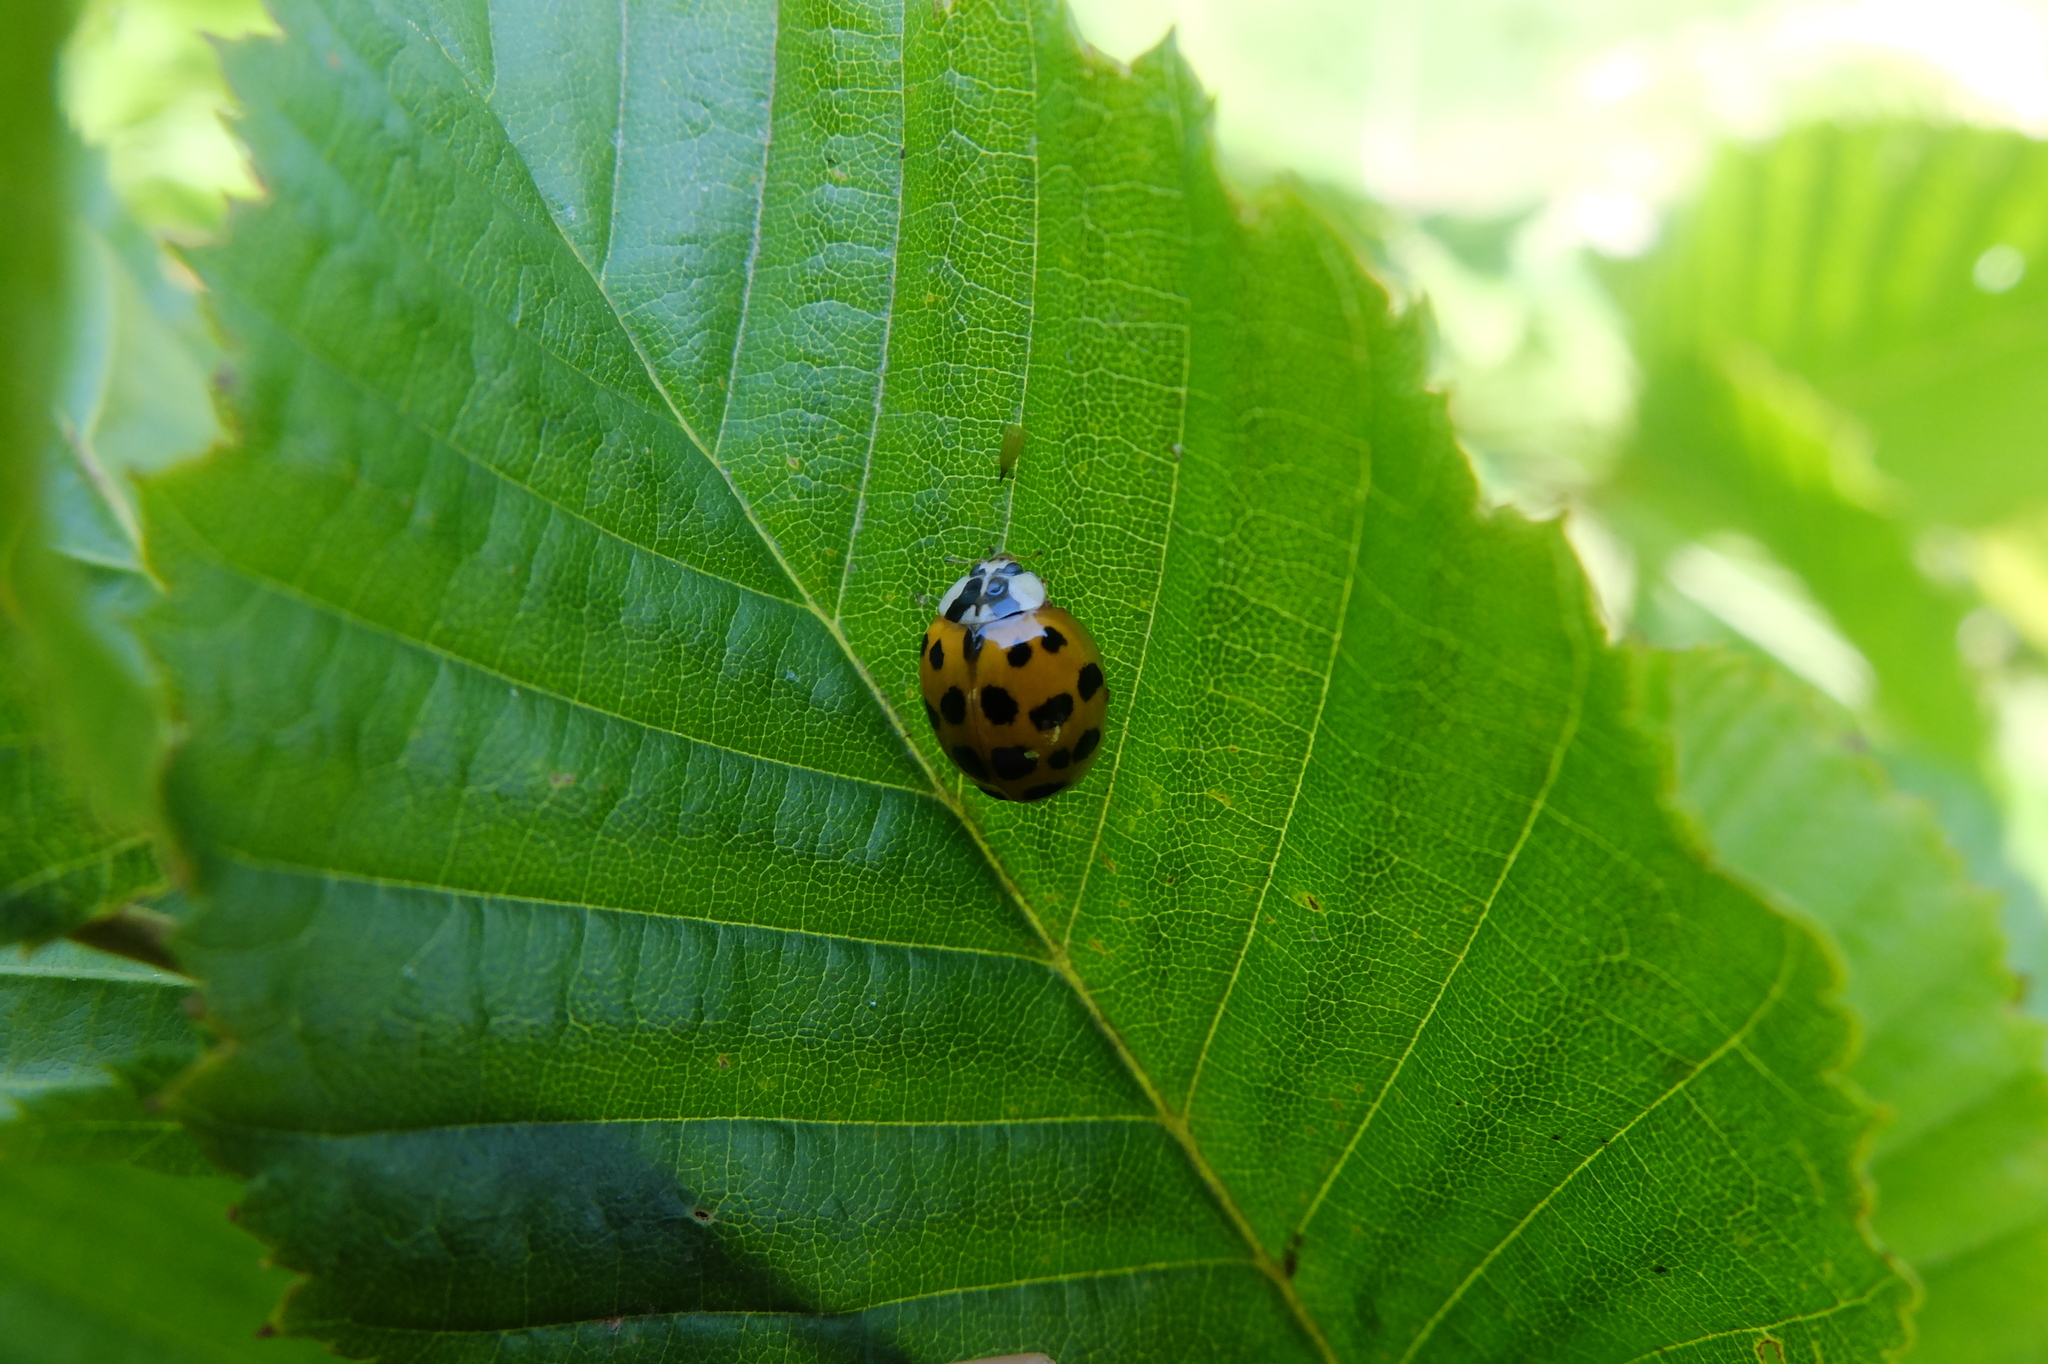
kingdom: Animalia
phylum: Arthropoda
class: Insecta
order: Coleoptera
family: Coccinellidae
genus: Harmonia
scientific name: Harmonia axyridis
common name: Harlequin ladybird
